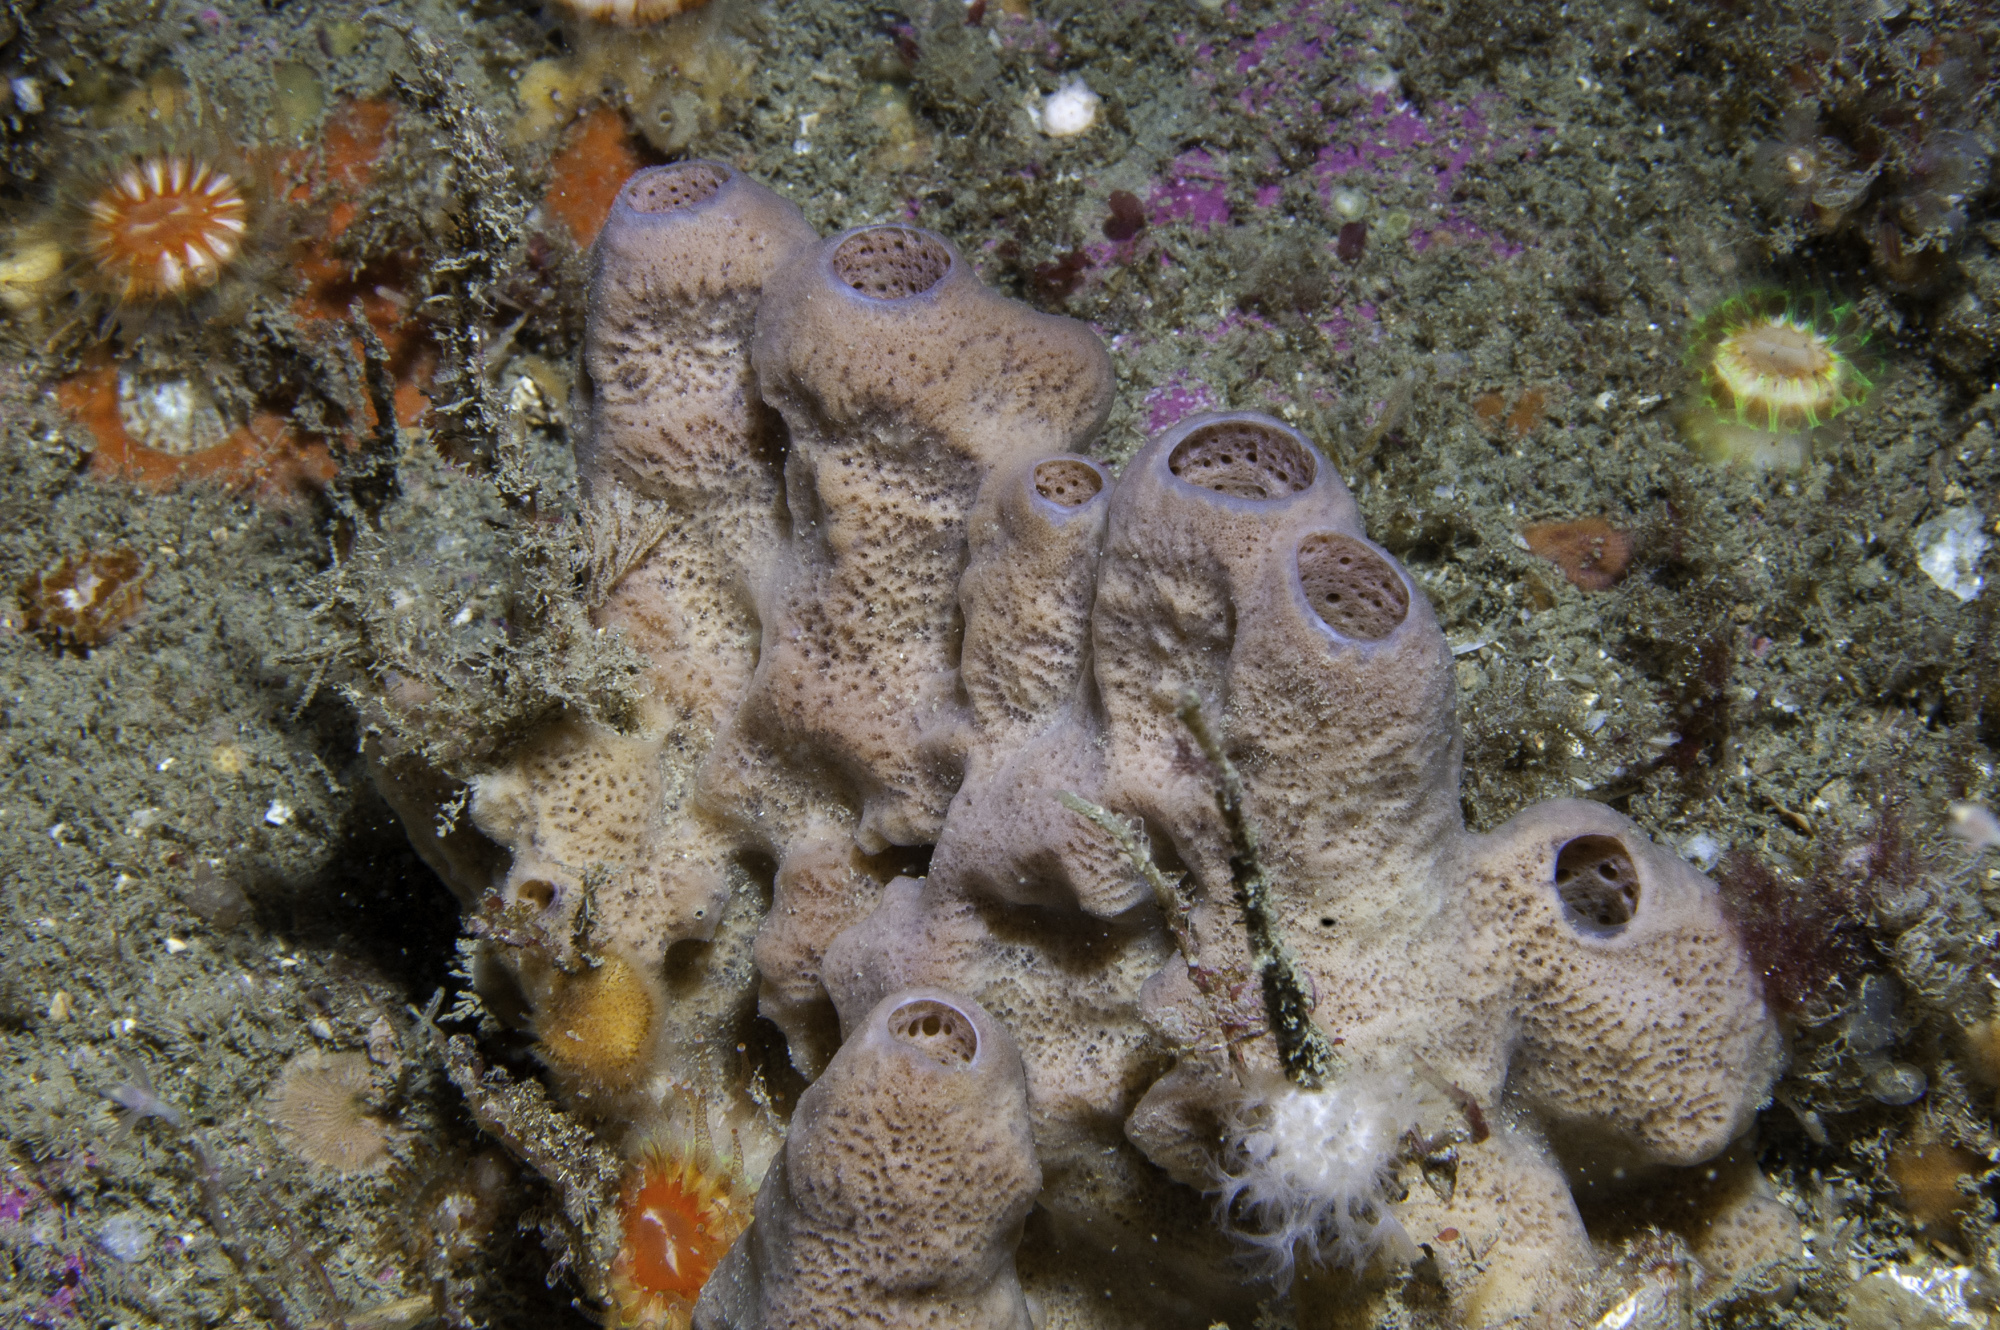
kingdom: Animalia
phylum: Porifera
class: Demospongiae
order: Haplosclerida
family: Chalinidae
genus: Haliclona
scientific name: Haliclona viscosa
